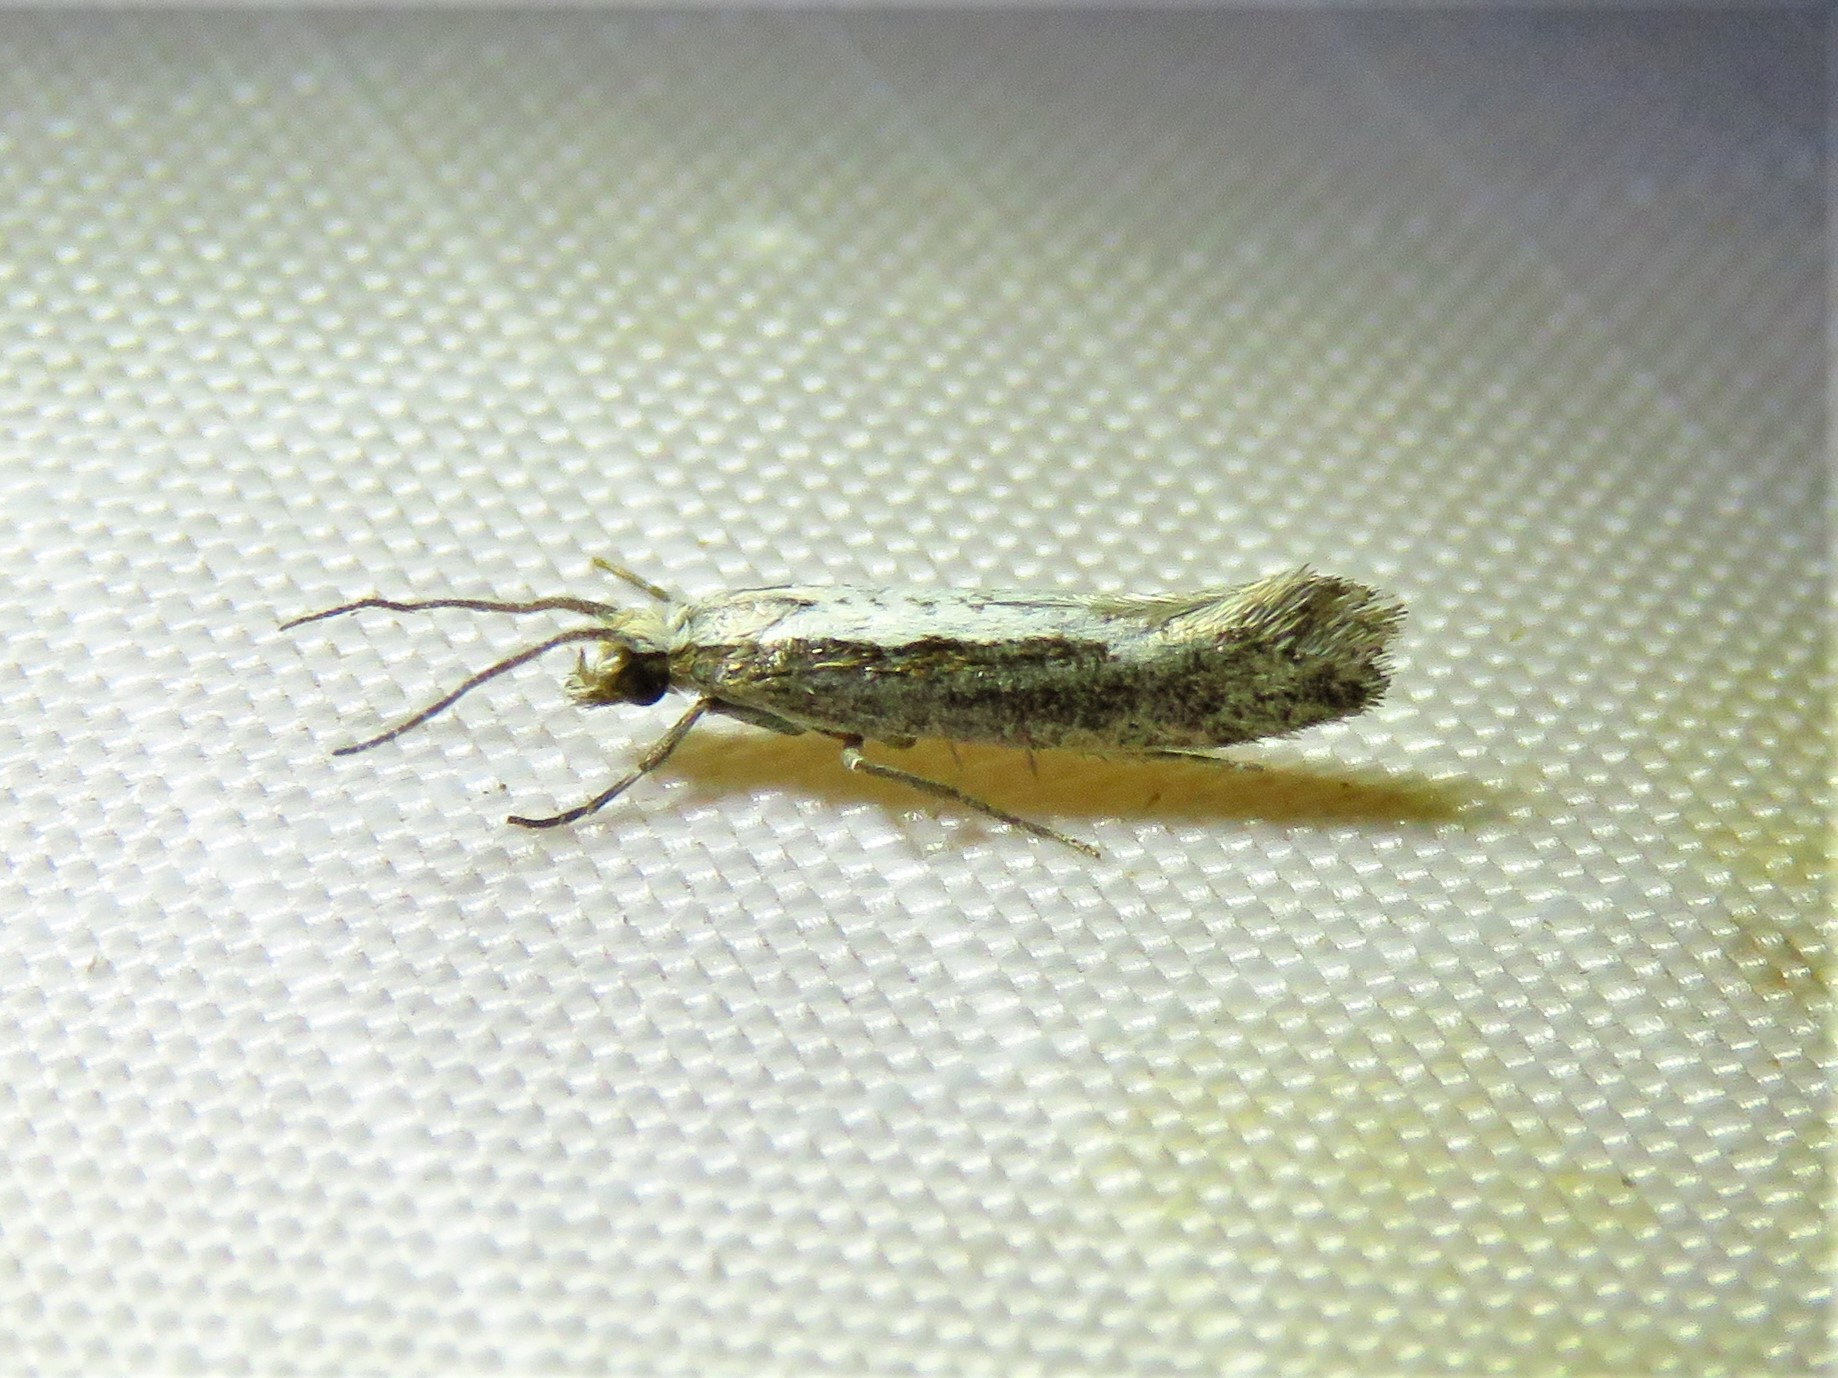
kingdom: Animalia
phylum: Arthropoda
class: Insecta
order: Lepidoptera
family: Plutellidae
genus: Plutella
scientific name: Plutella xylostella
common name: Diamond-back moth
